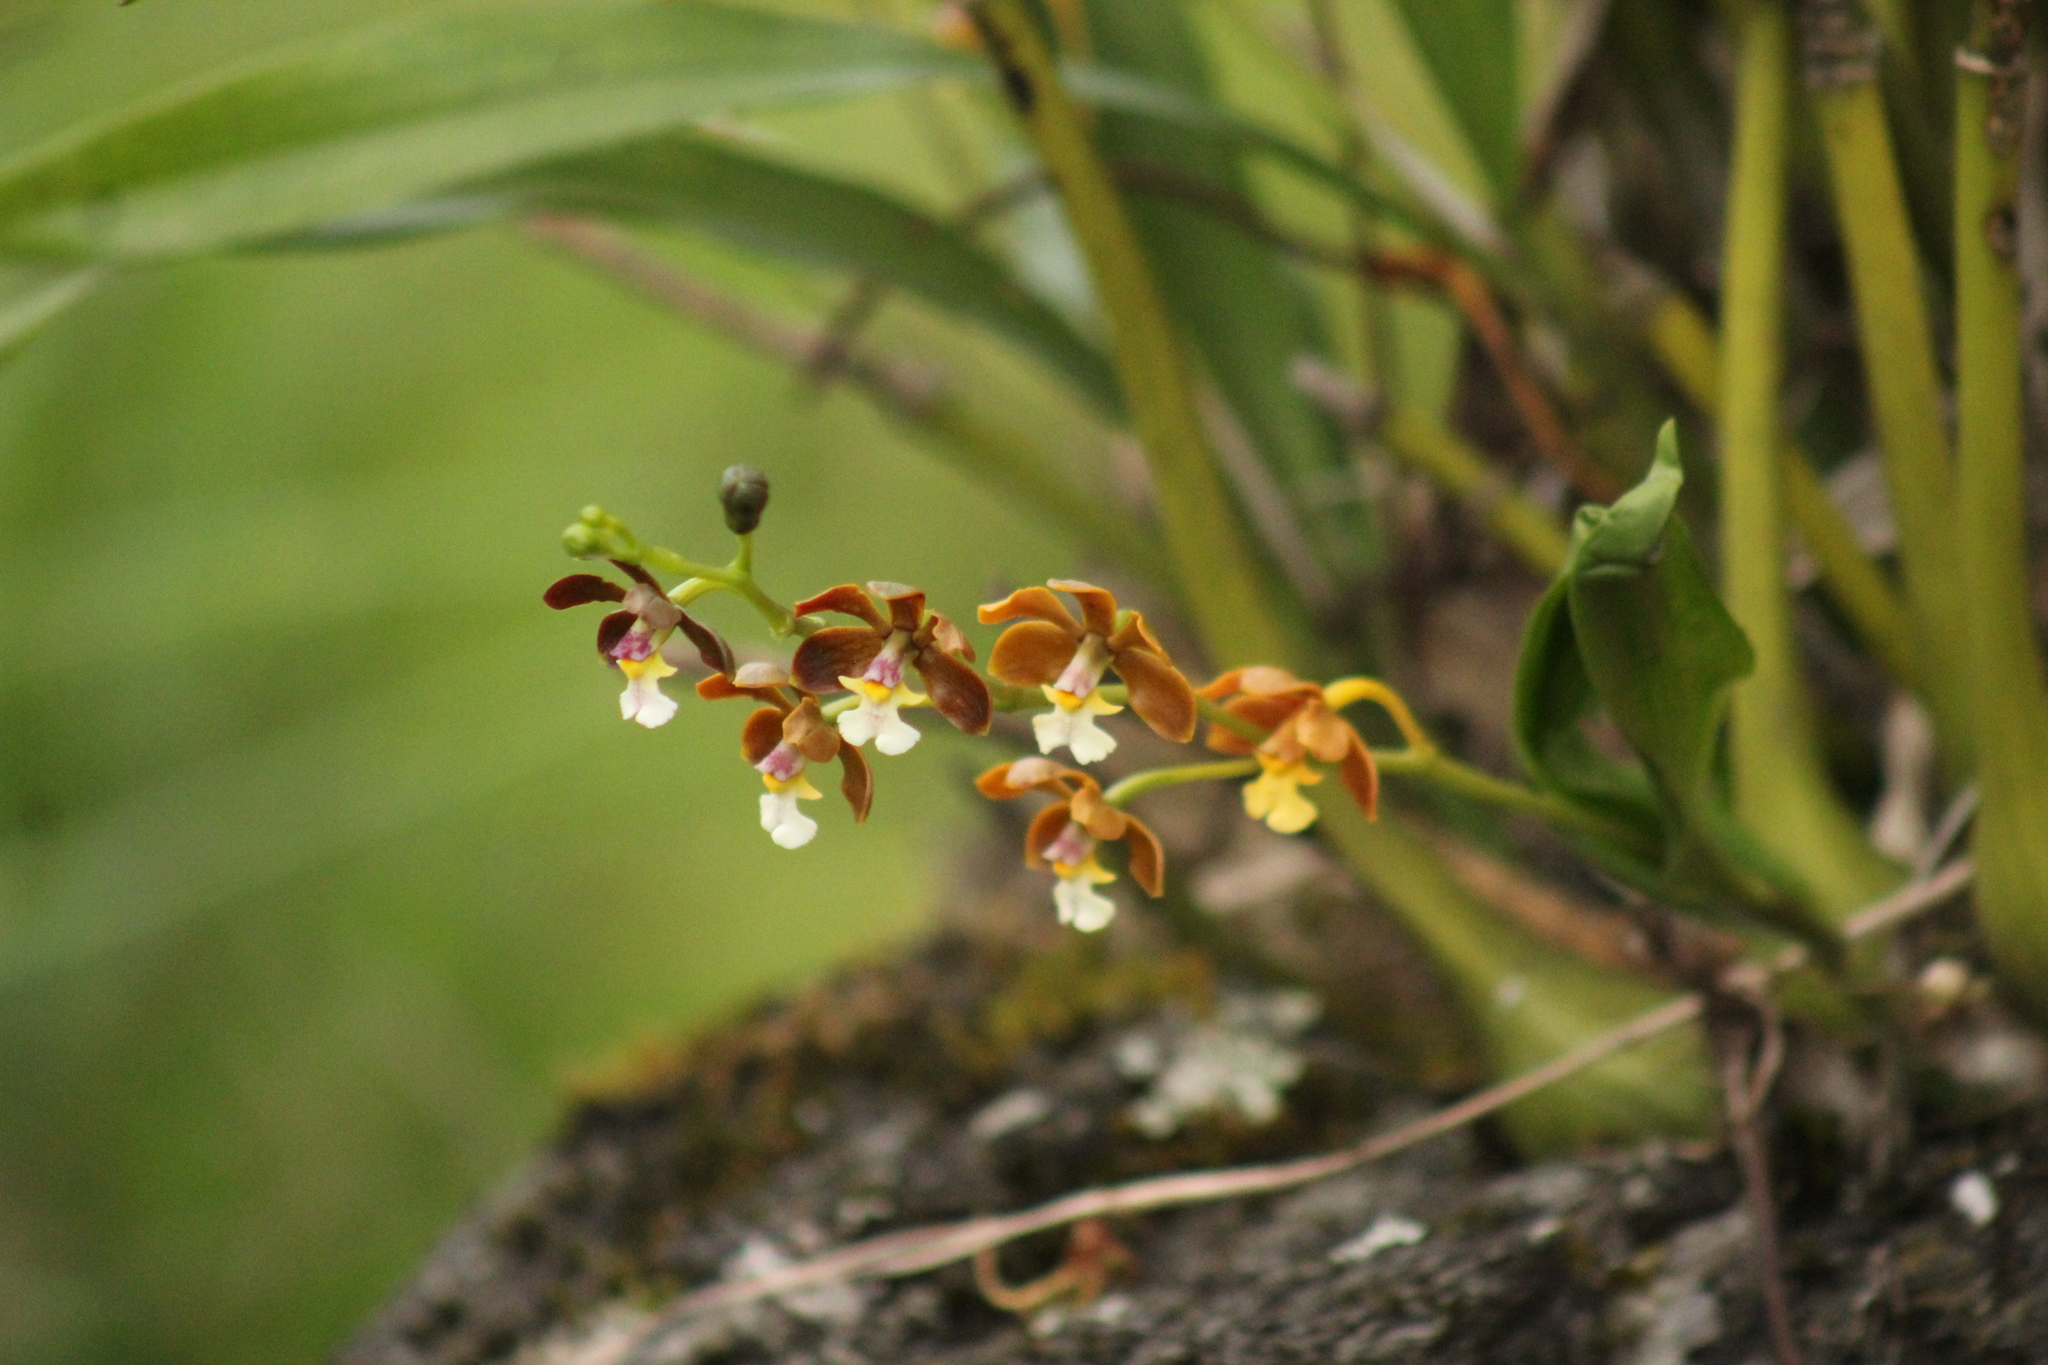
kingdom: Plantae
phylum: Tracheophyta
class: Liliopsida
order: Asparagales
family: Orchidaceae
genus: Prosthechea
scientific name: Prosthechea varicosa
